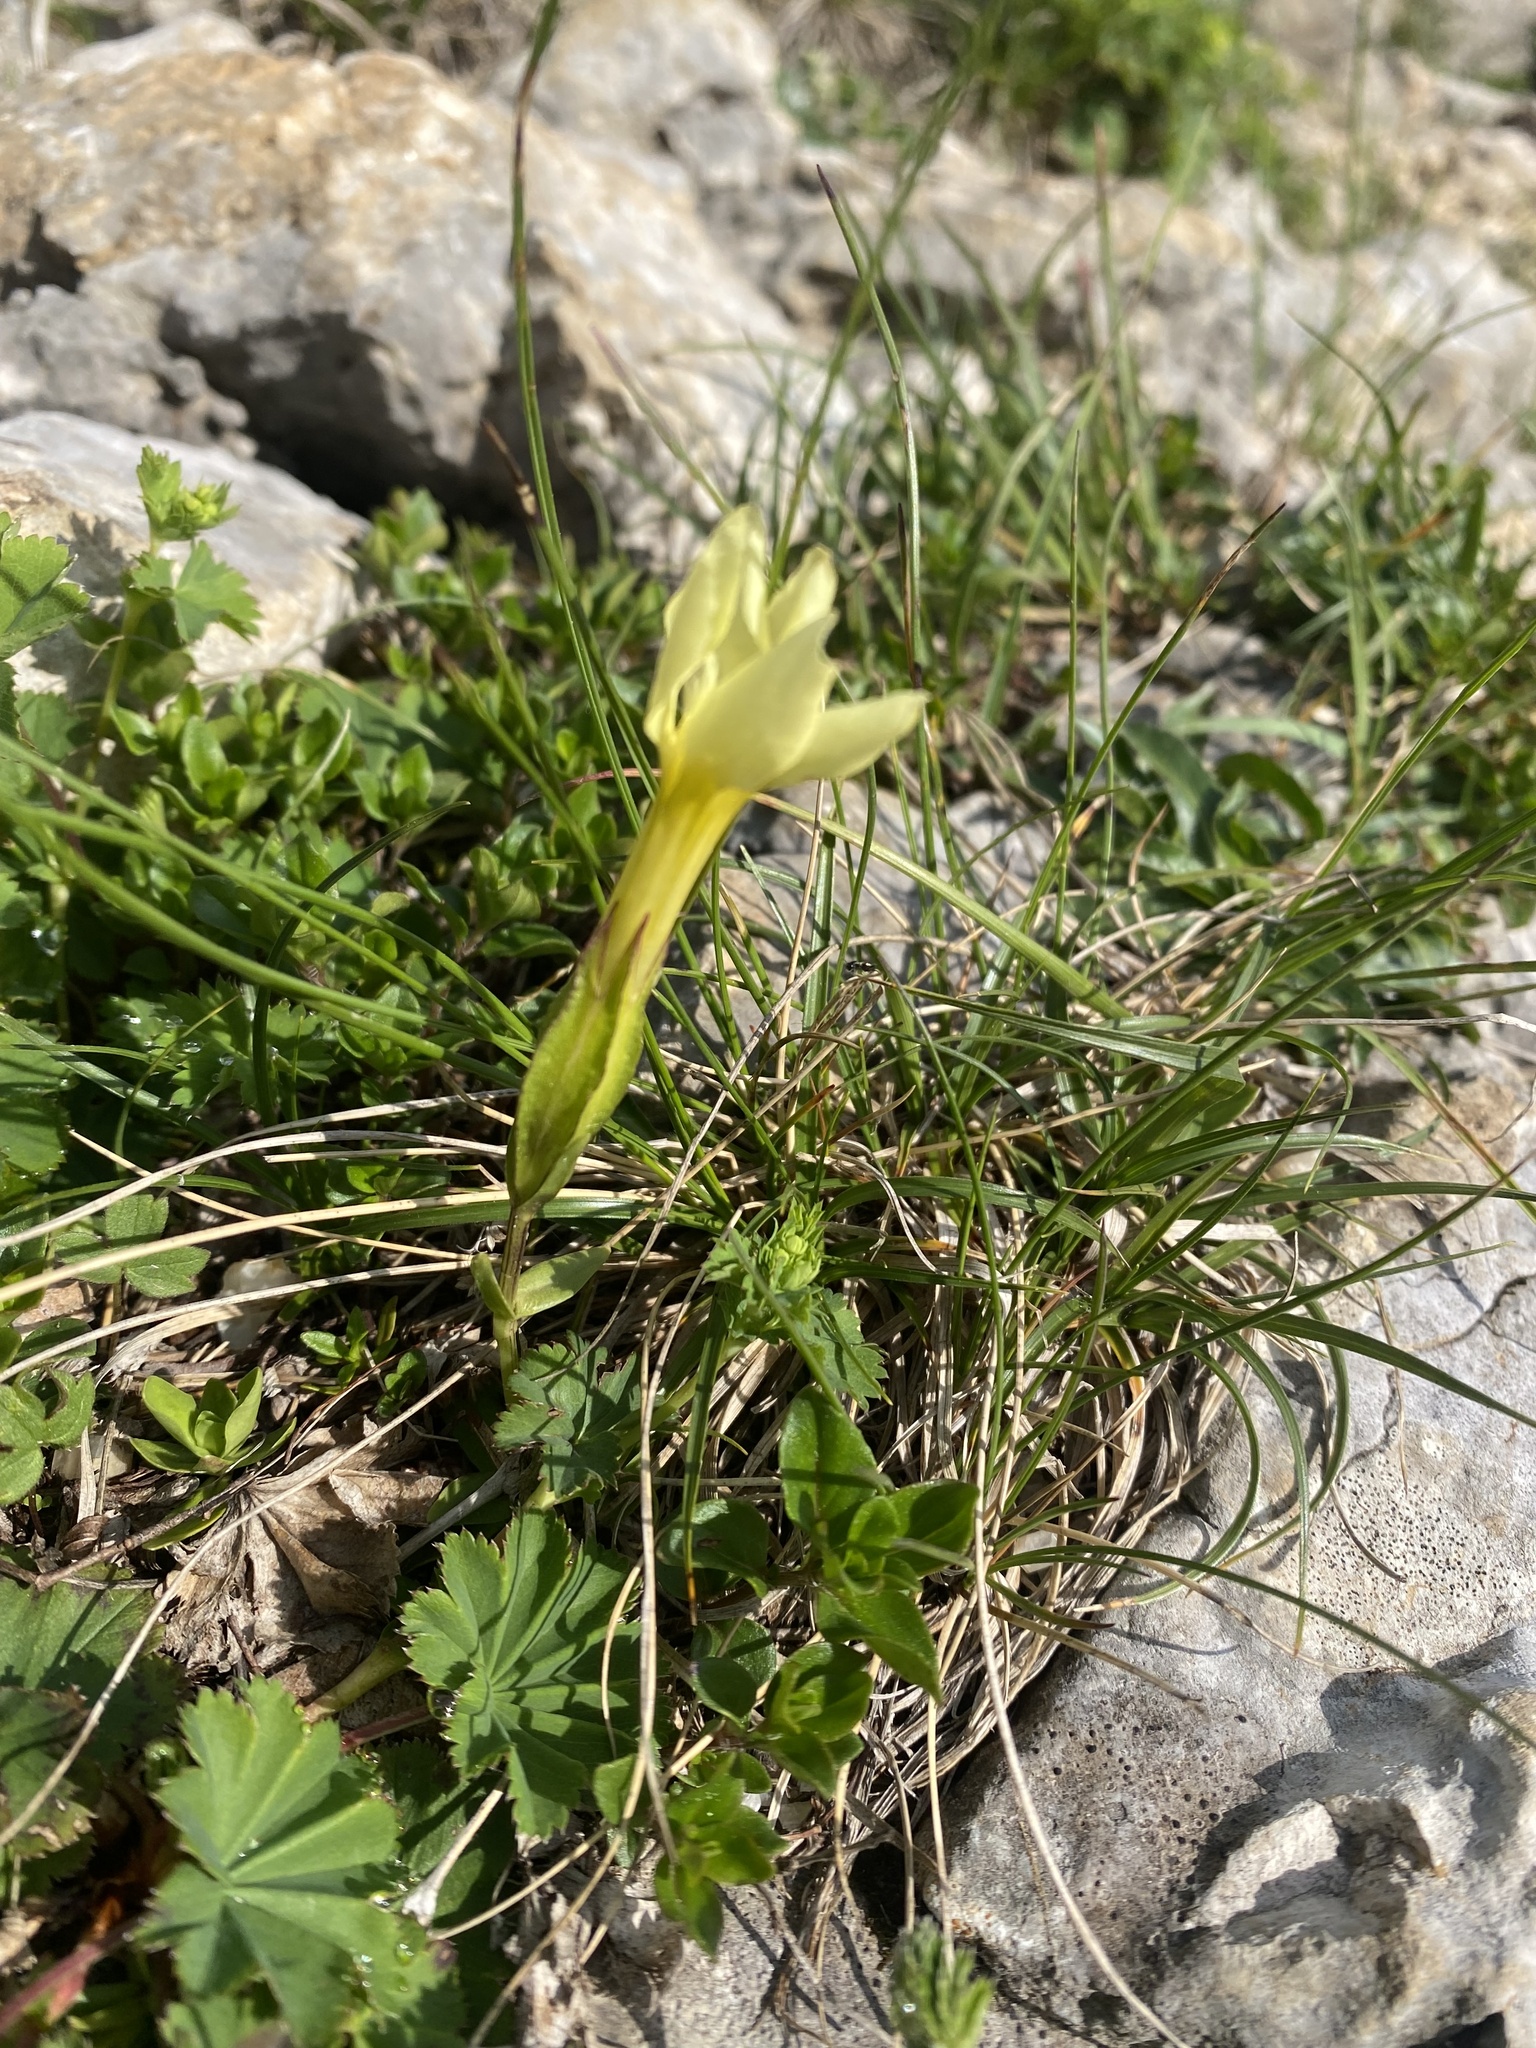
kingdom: Plantae
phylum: Tracheophyta
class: Magnoliopsida
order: Gentianales
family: Gentianaceae
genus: Gentiana
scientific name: Gentiana verna
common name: Spring gentian
